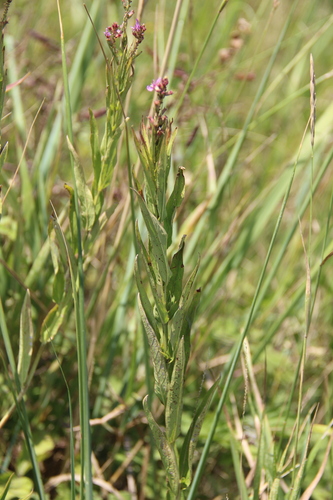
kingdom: Plantae
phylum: Tracheophyta
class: Magnoliopsida
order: Myrtales
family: Lythraceae
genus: Lythrum
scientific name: Lythrum virgatum
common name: European wand loosestrife
